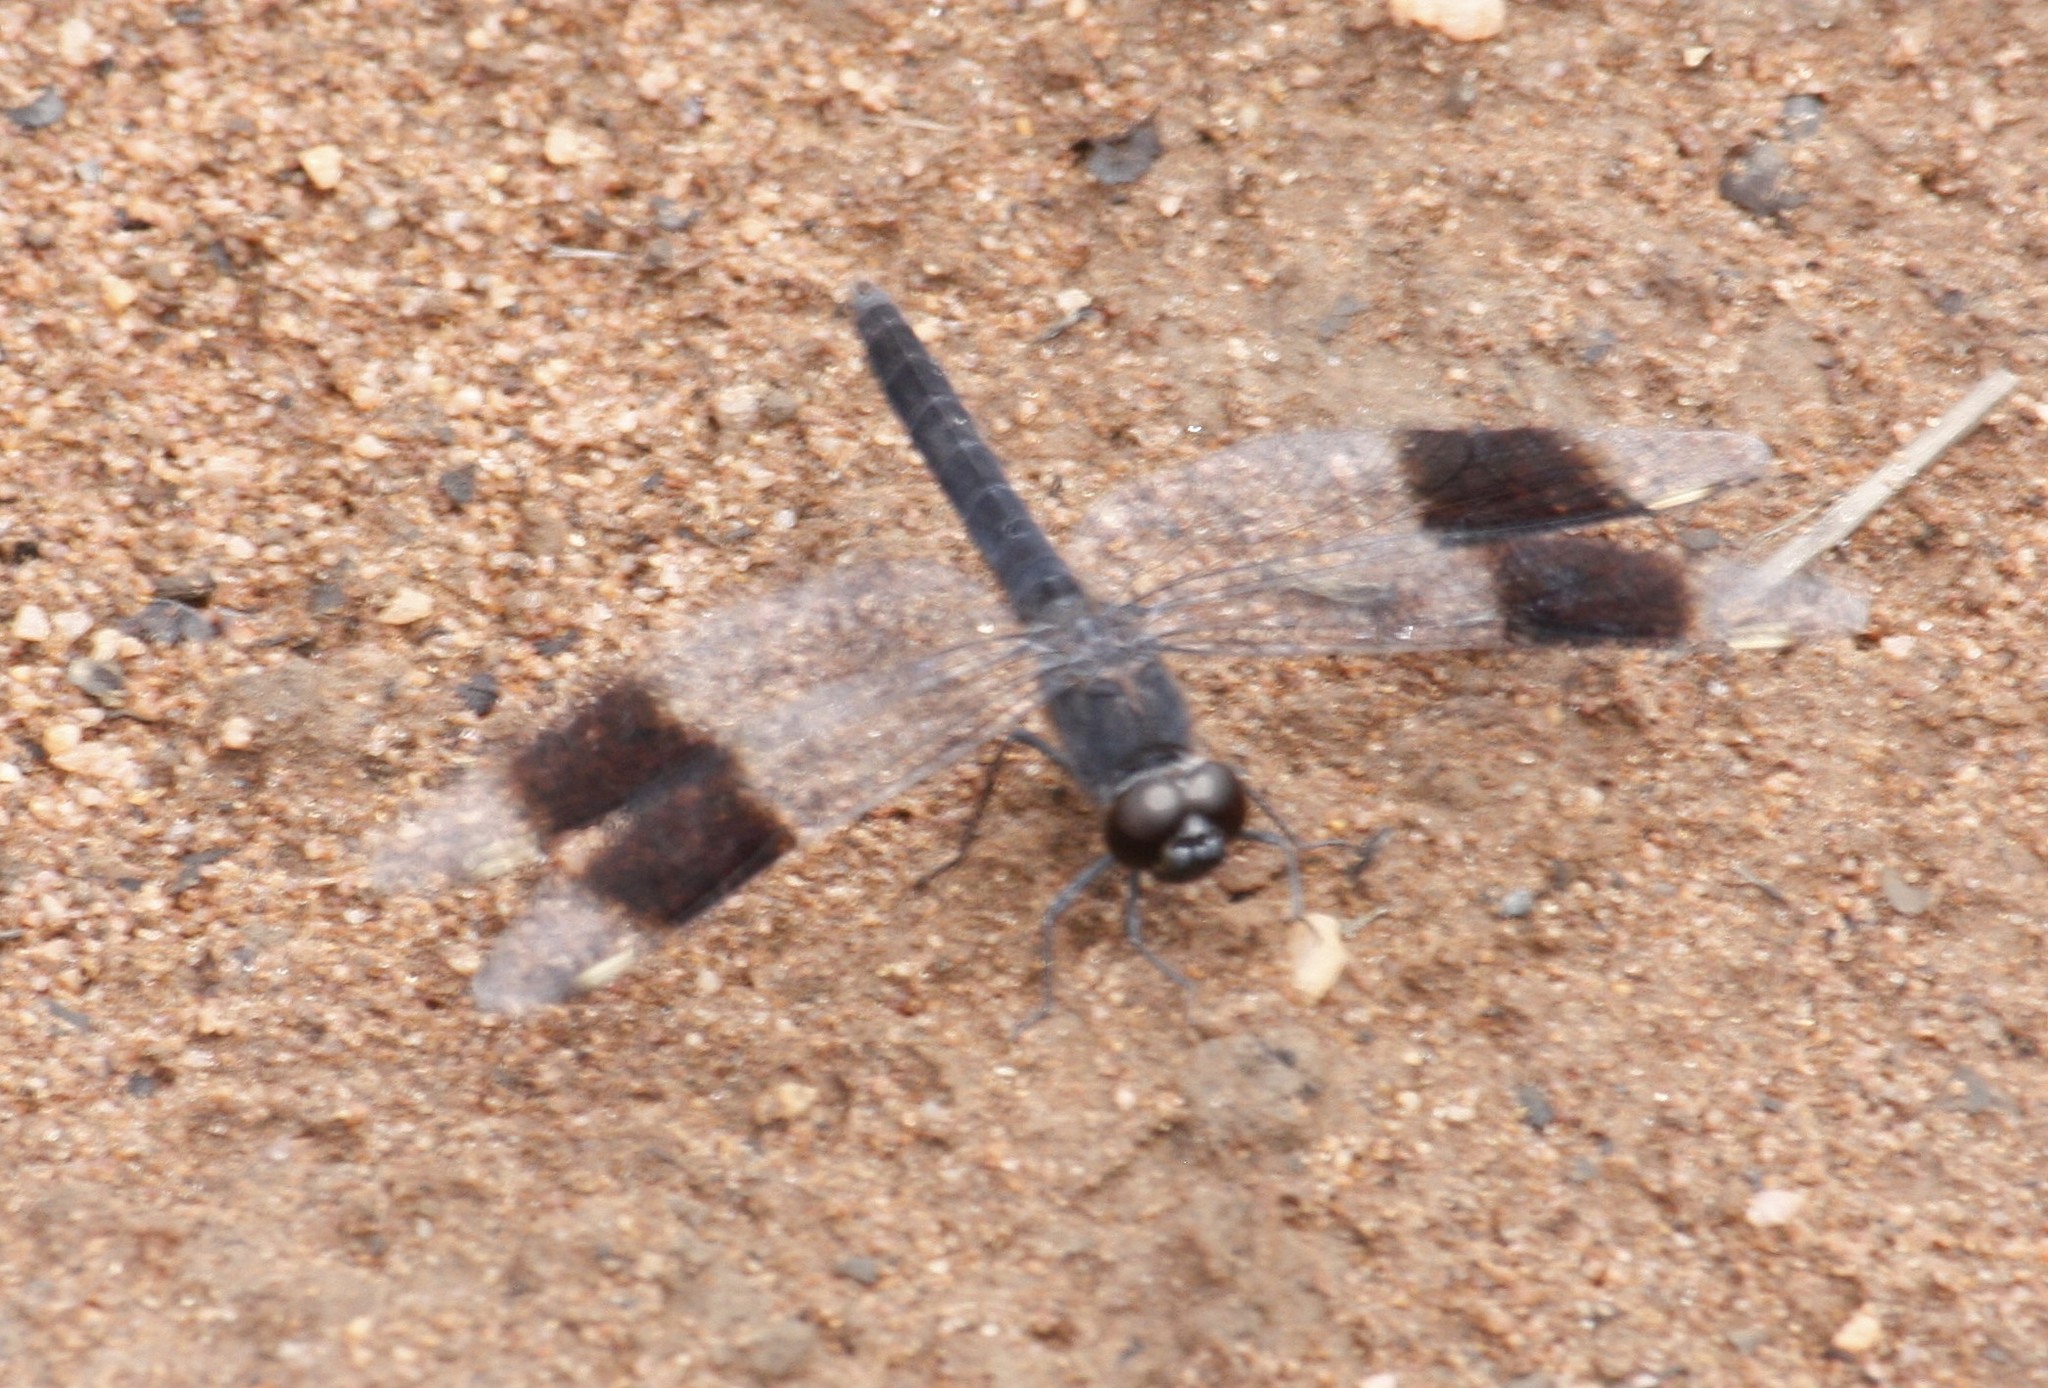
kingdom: Animalia
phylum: Arthropoda
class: Insecta
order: Odonata
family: Libellulidae
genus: Brachythemis
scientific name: Brachythemis leucosticta
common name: Banded groundling
